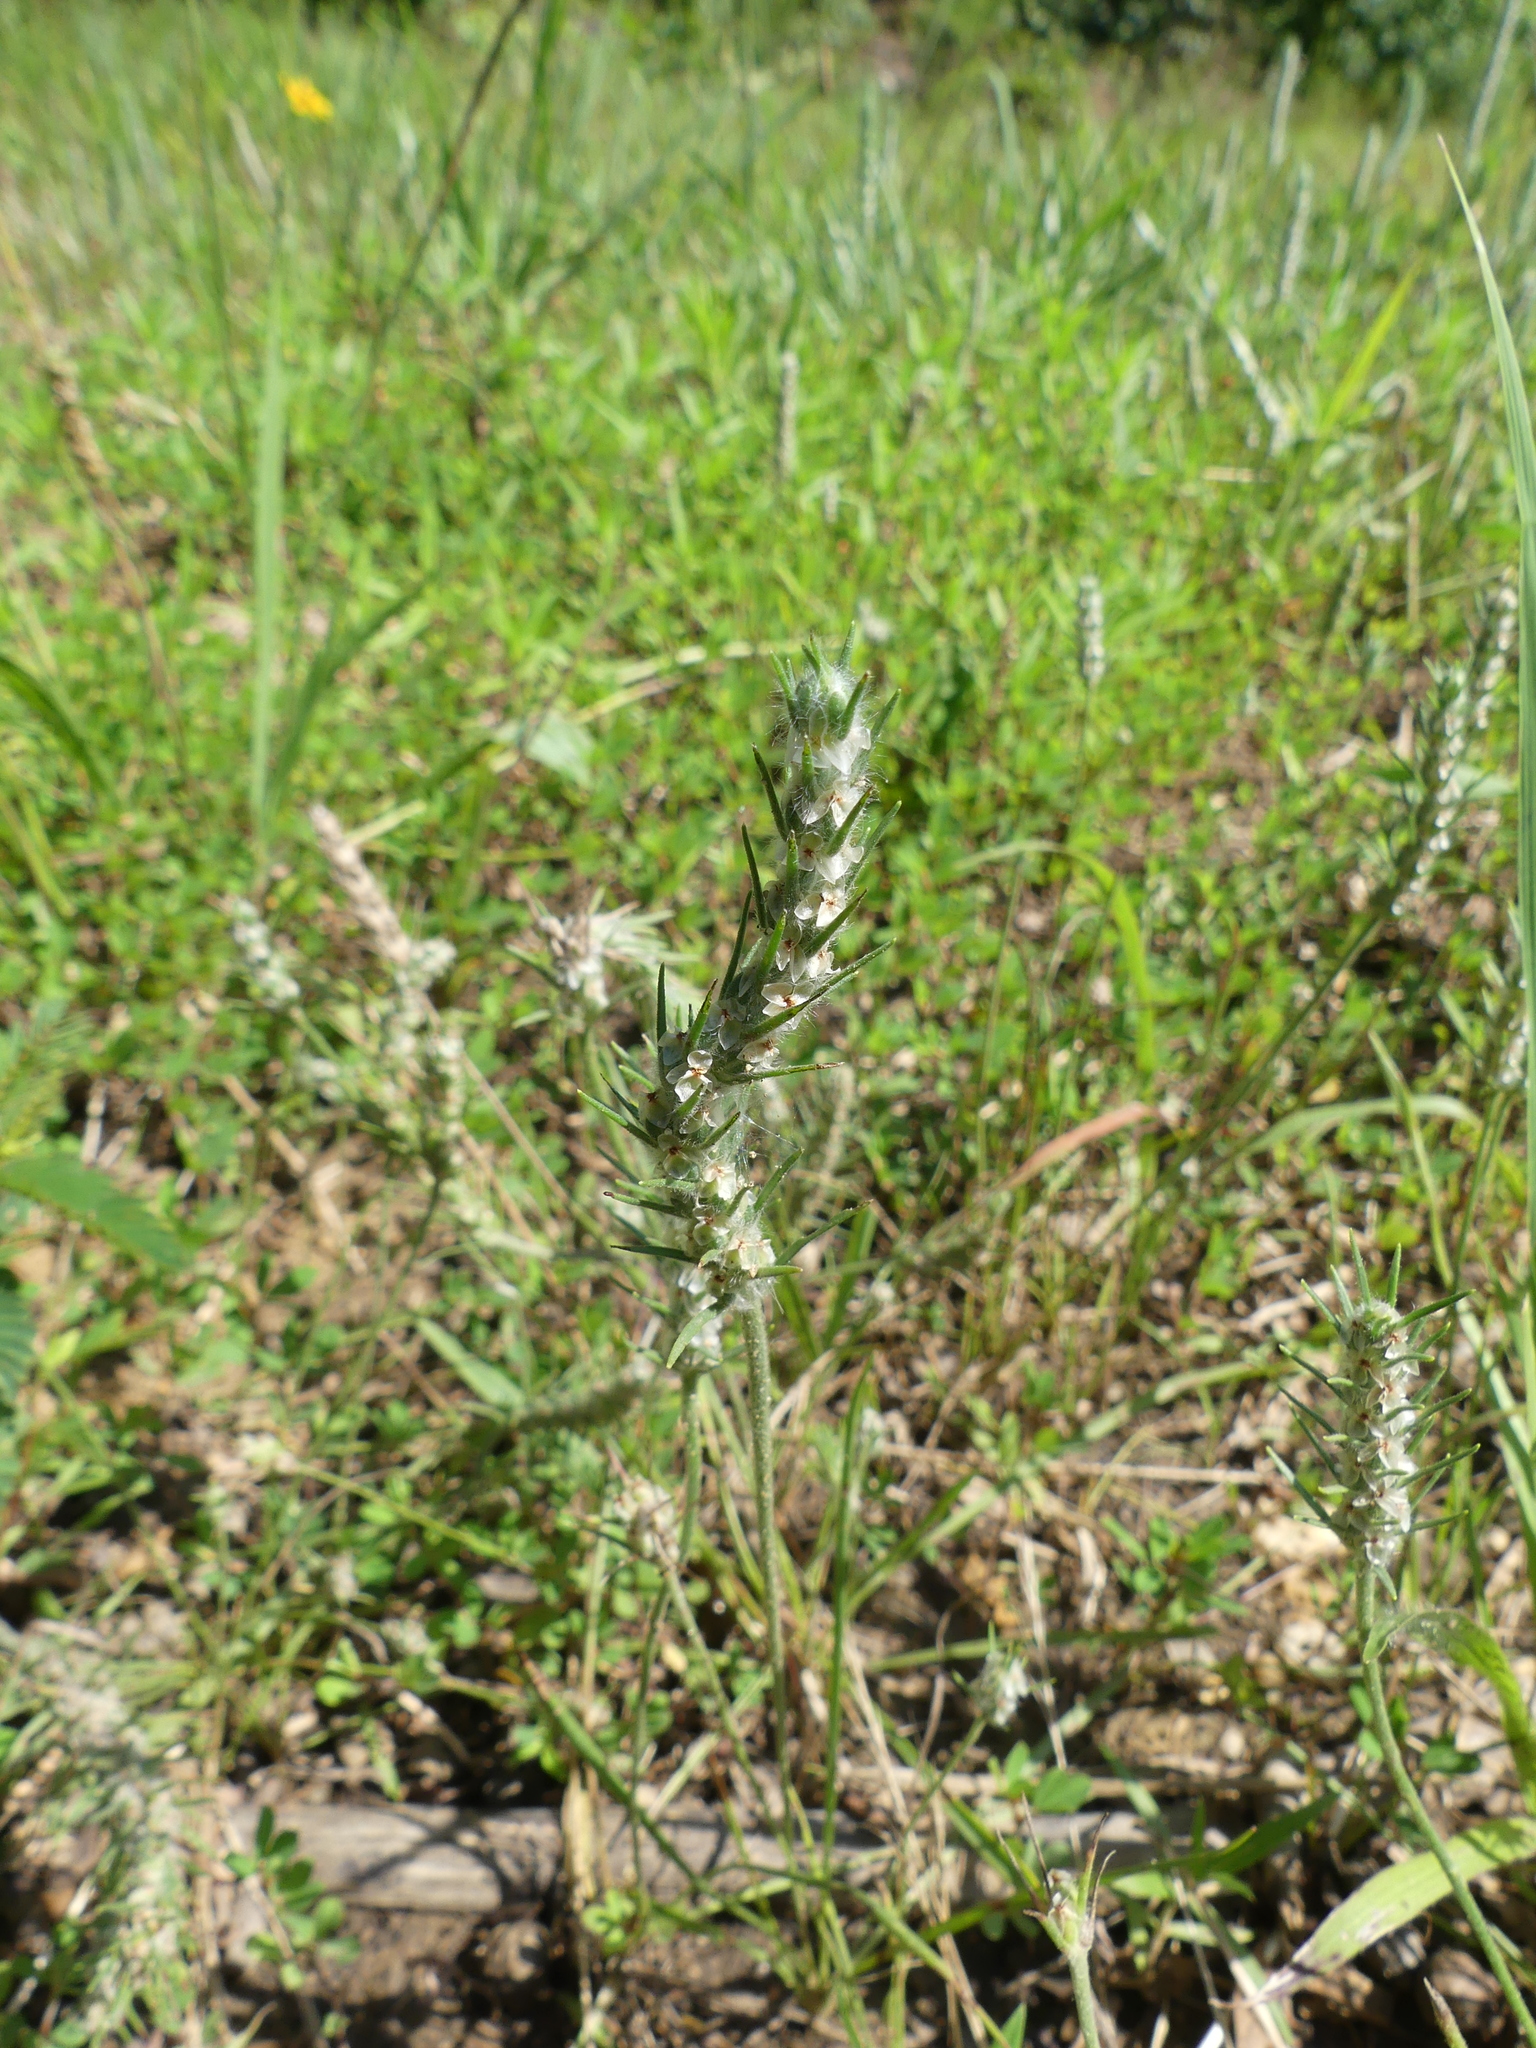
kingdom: Plantae
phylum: Tracheophyta
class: Magnoliopsida
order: Lamiales
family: Plantaginaceae
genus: Plantago
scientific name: Plantago aristata
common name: Bracted plantain
